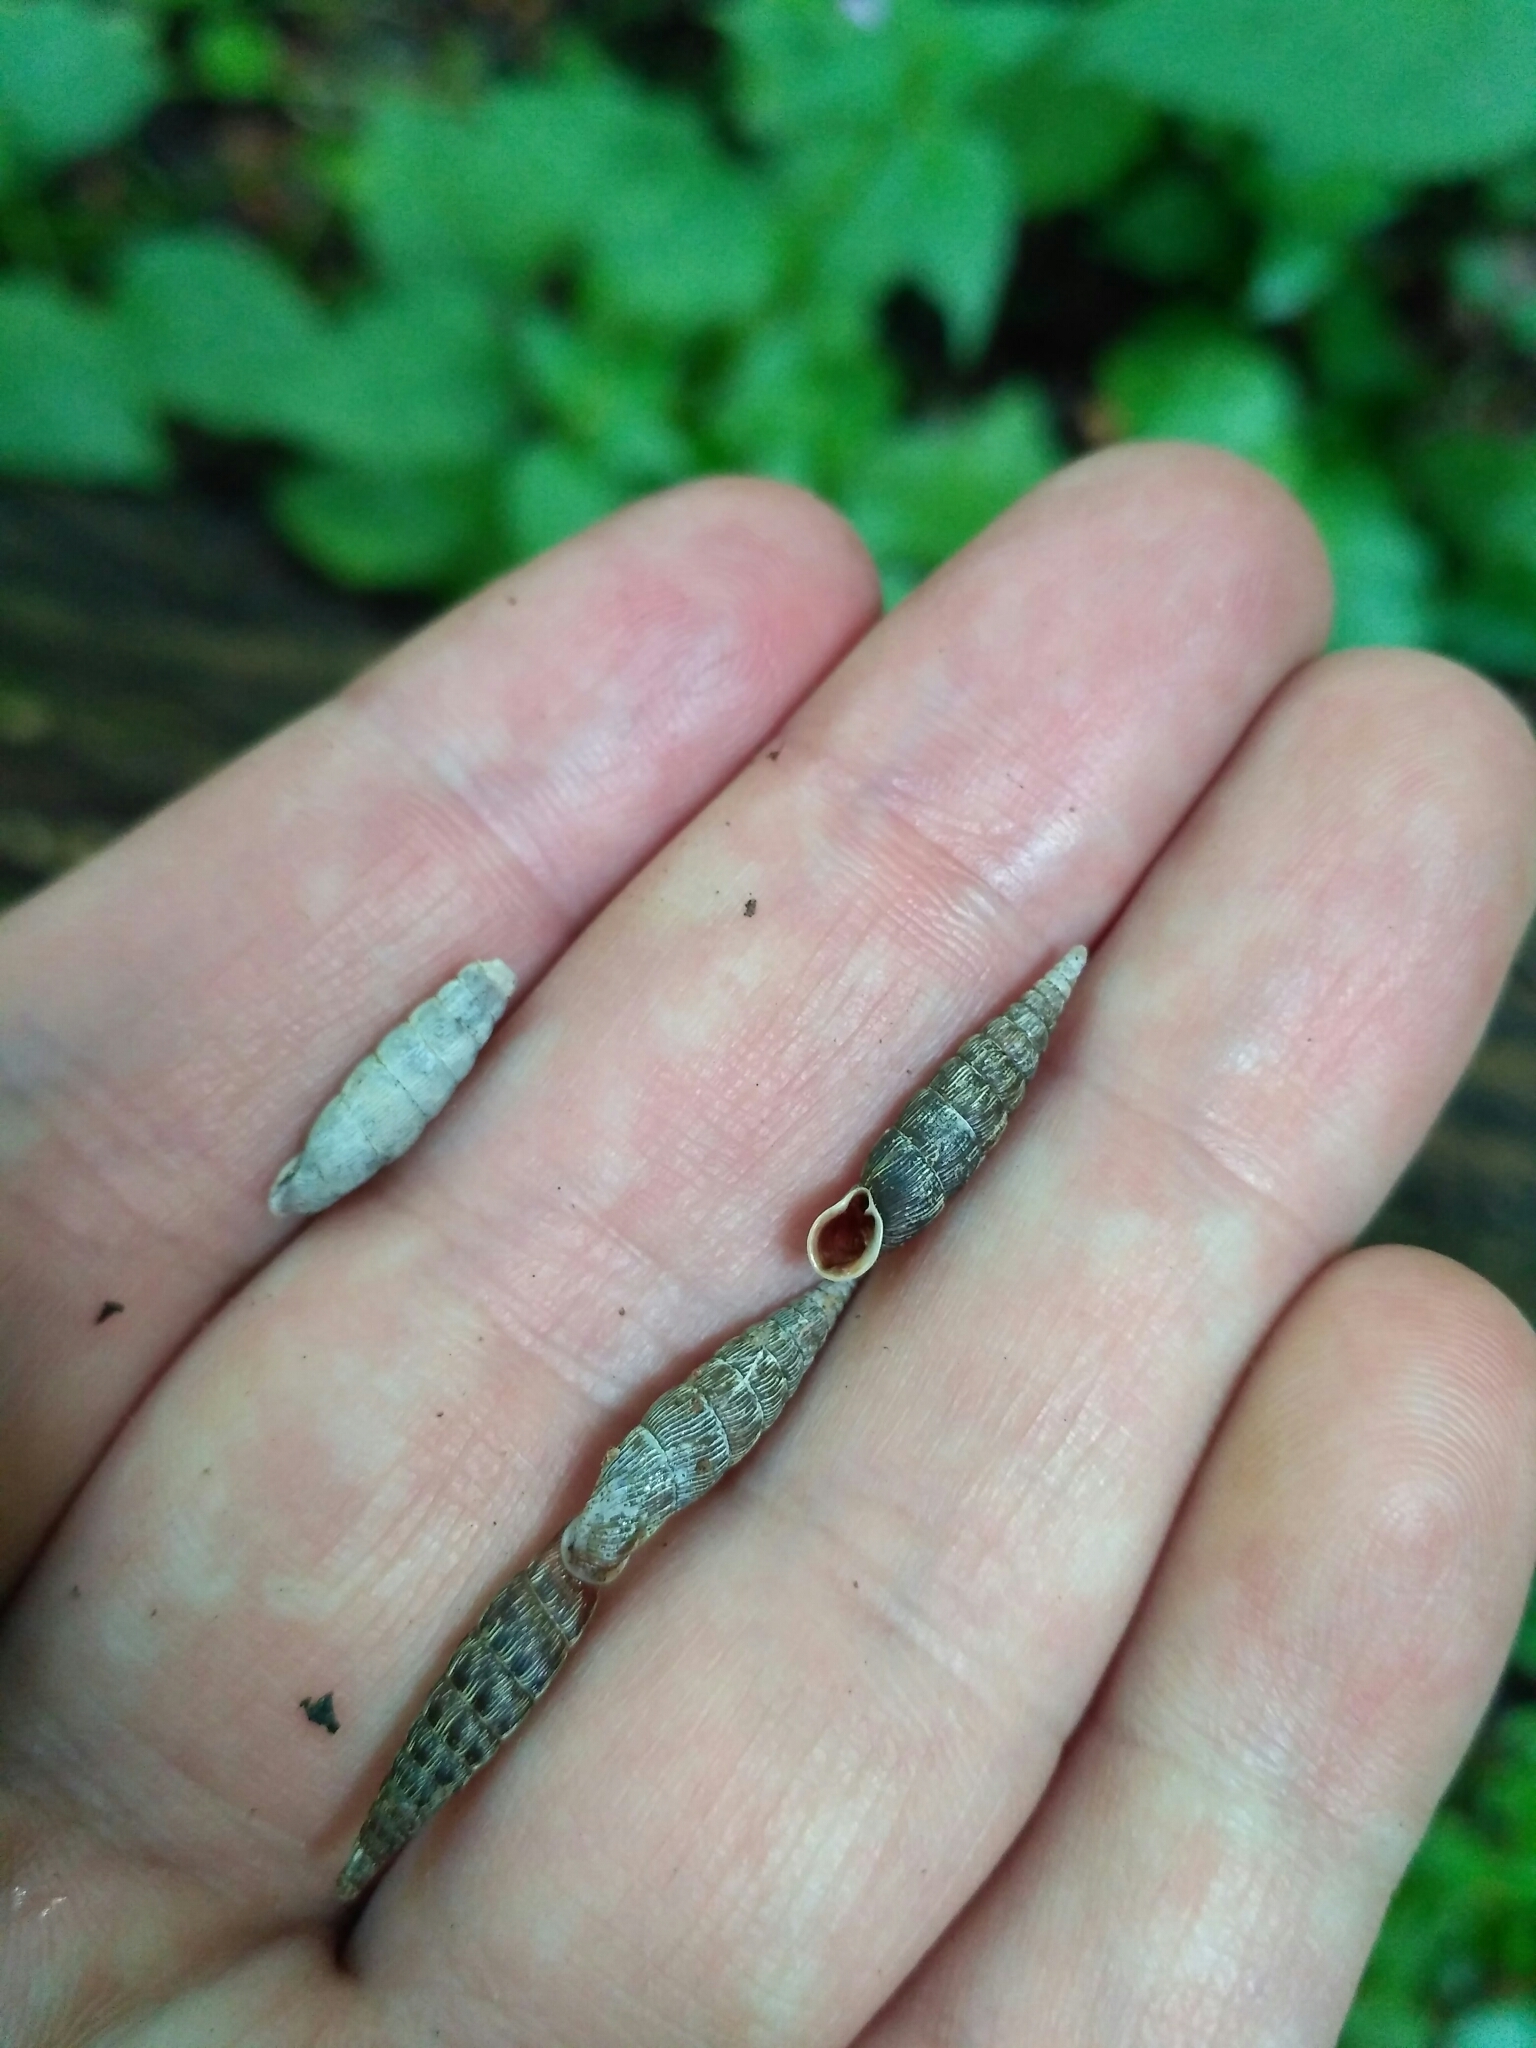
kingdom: Animalia
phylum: Mollusca
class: Gastropoda
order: Stylommatophora
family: Clausiliidae
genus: Strigillaria
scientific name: Strigillaria cana
